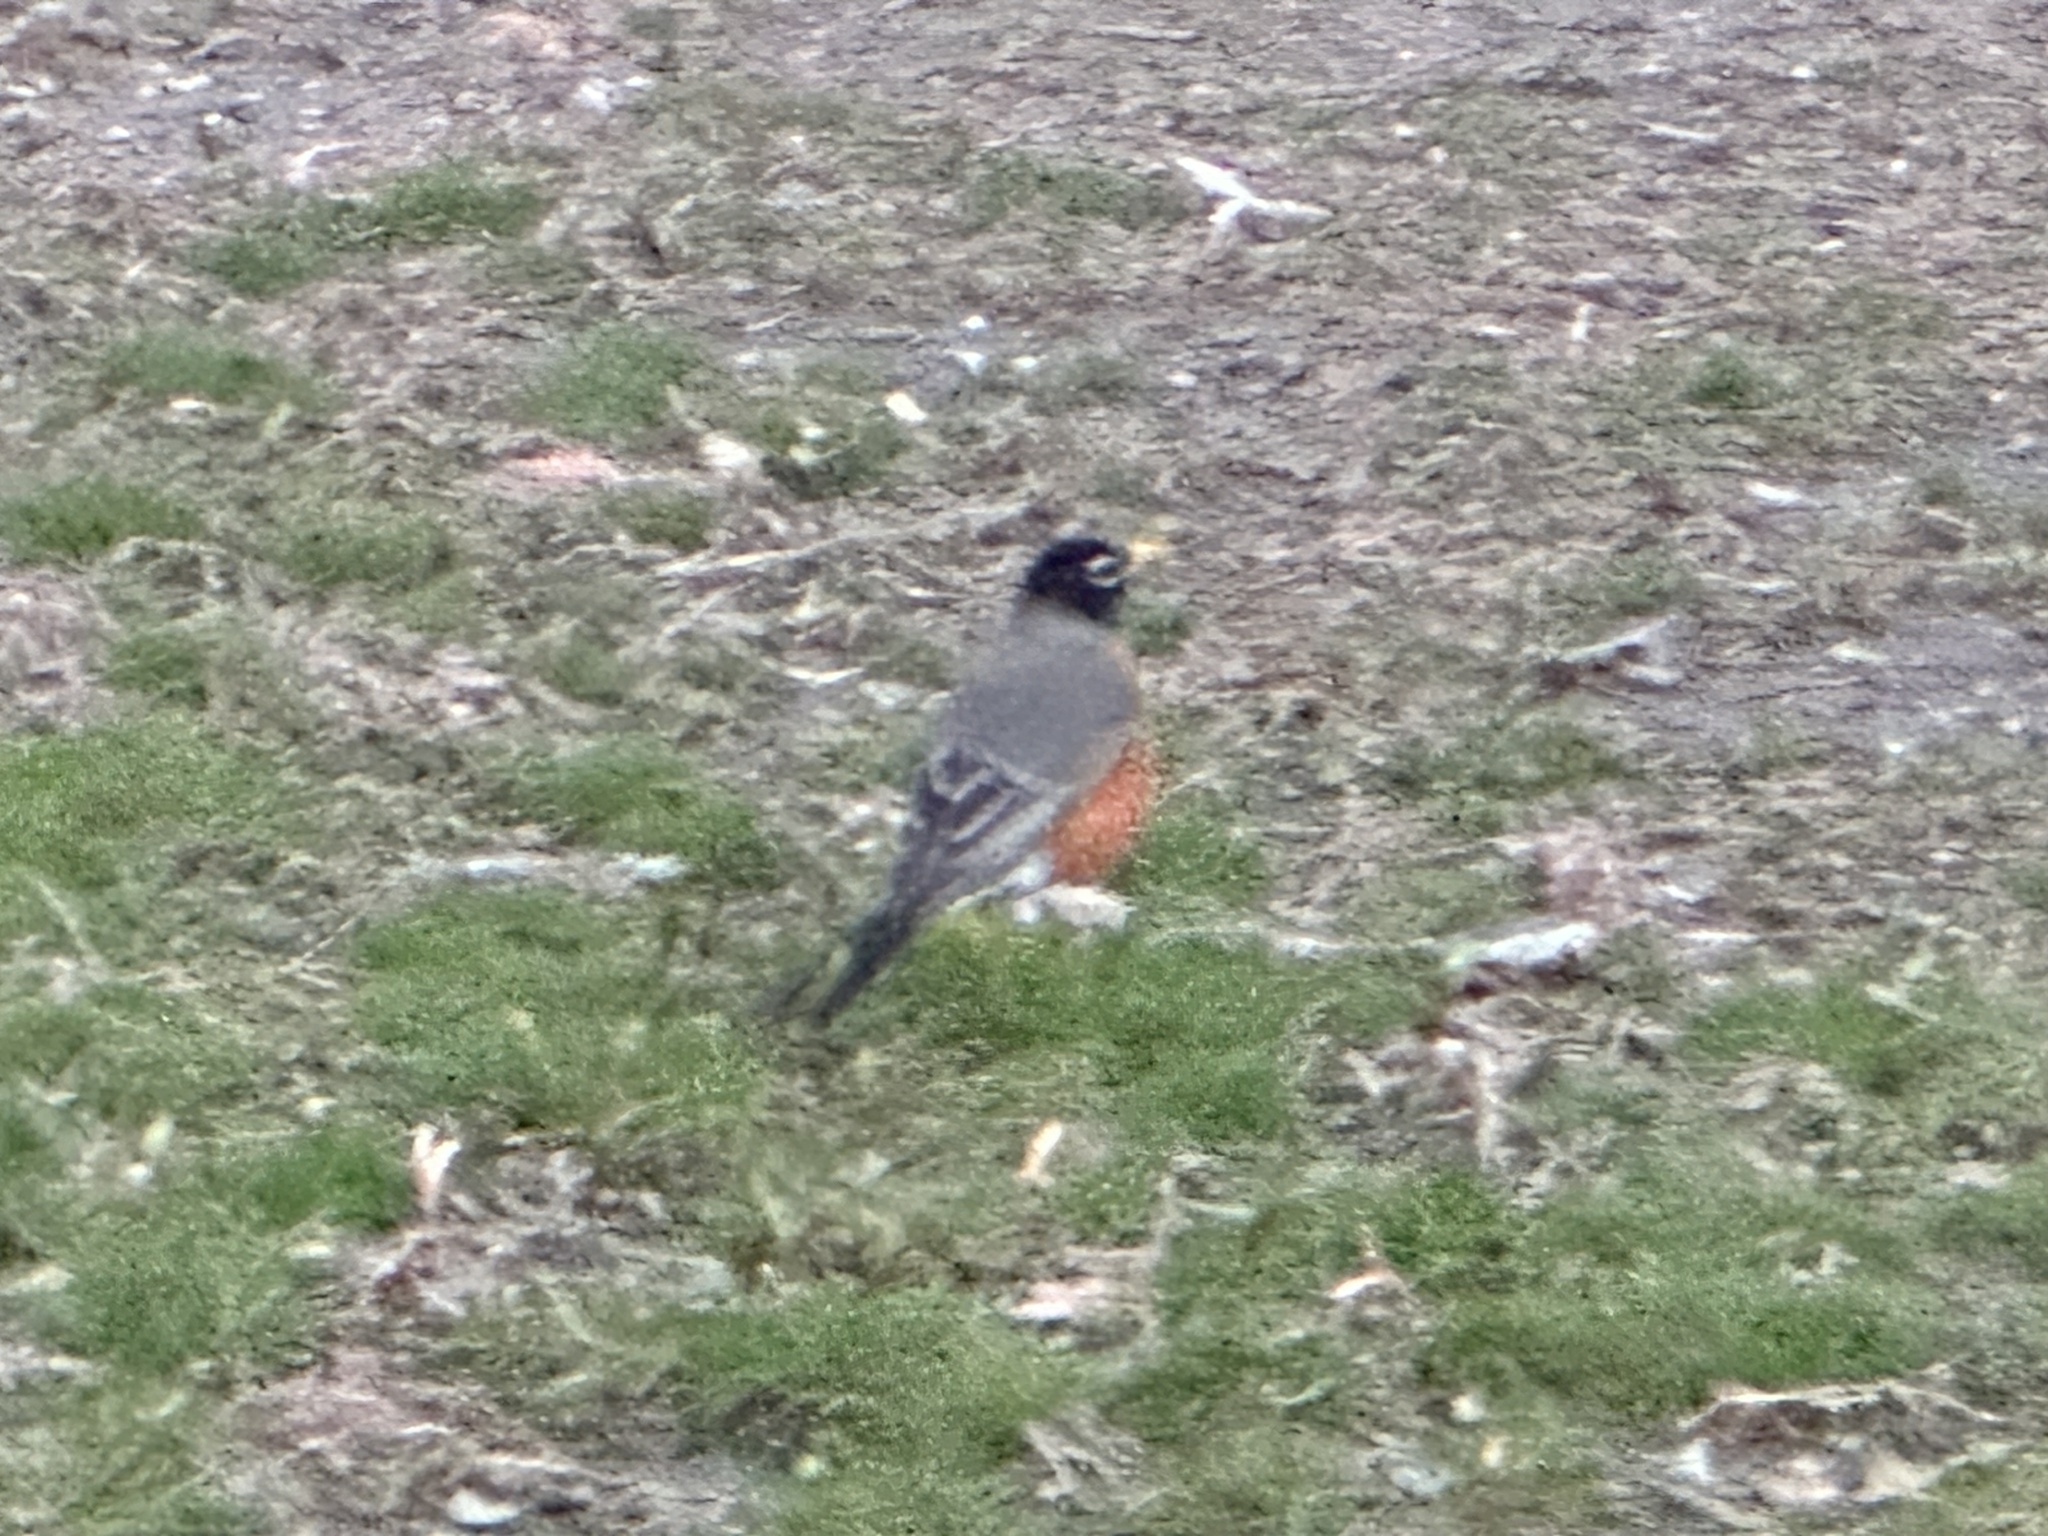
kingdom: Animalia
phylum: Chordata
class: Aves
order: Passeriformes
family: Turdidae
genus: Turdus
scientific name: Turdus migratorius
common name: American robin
